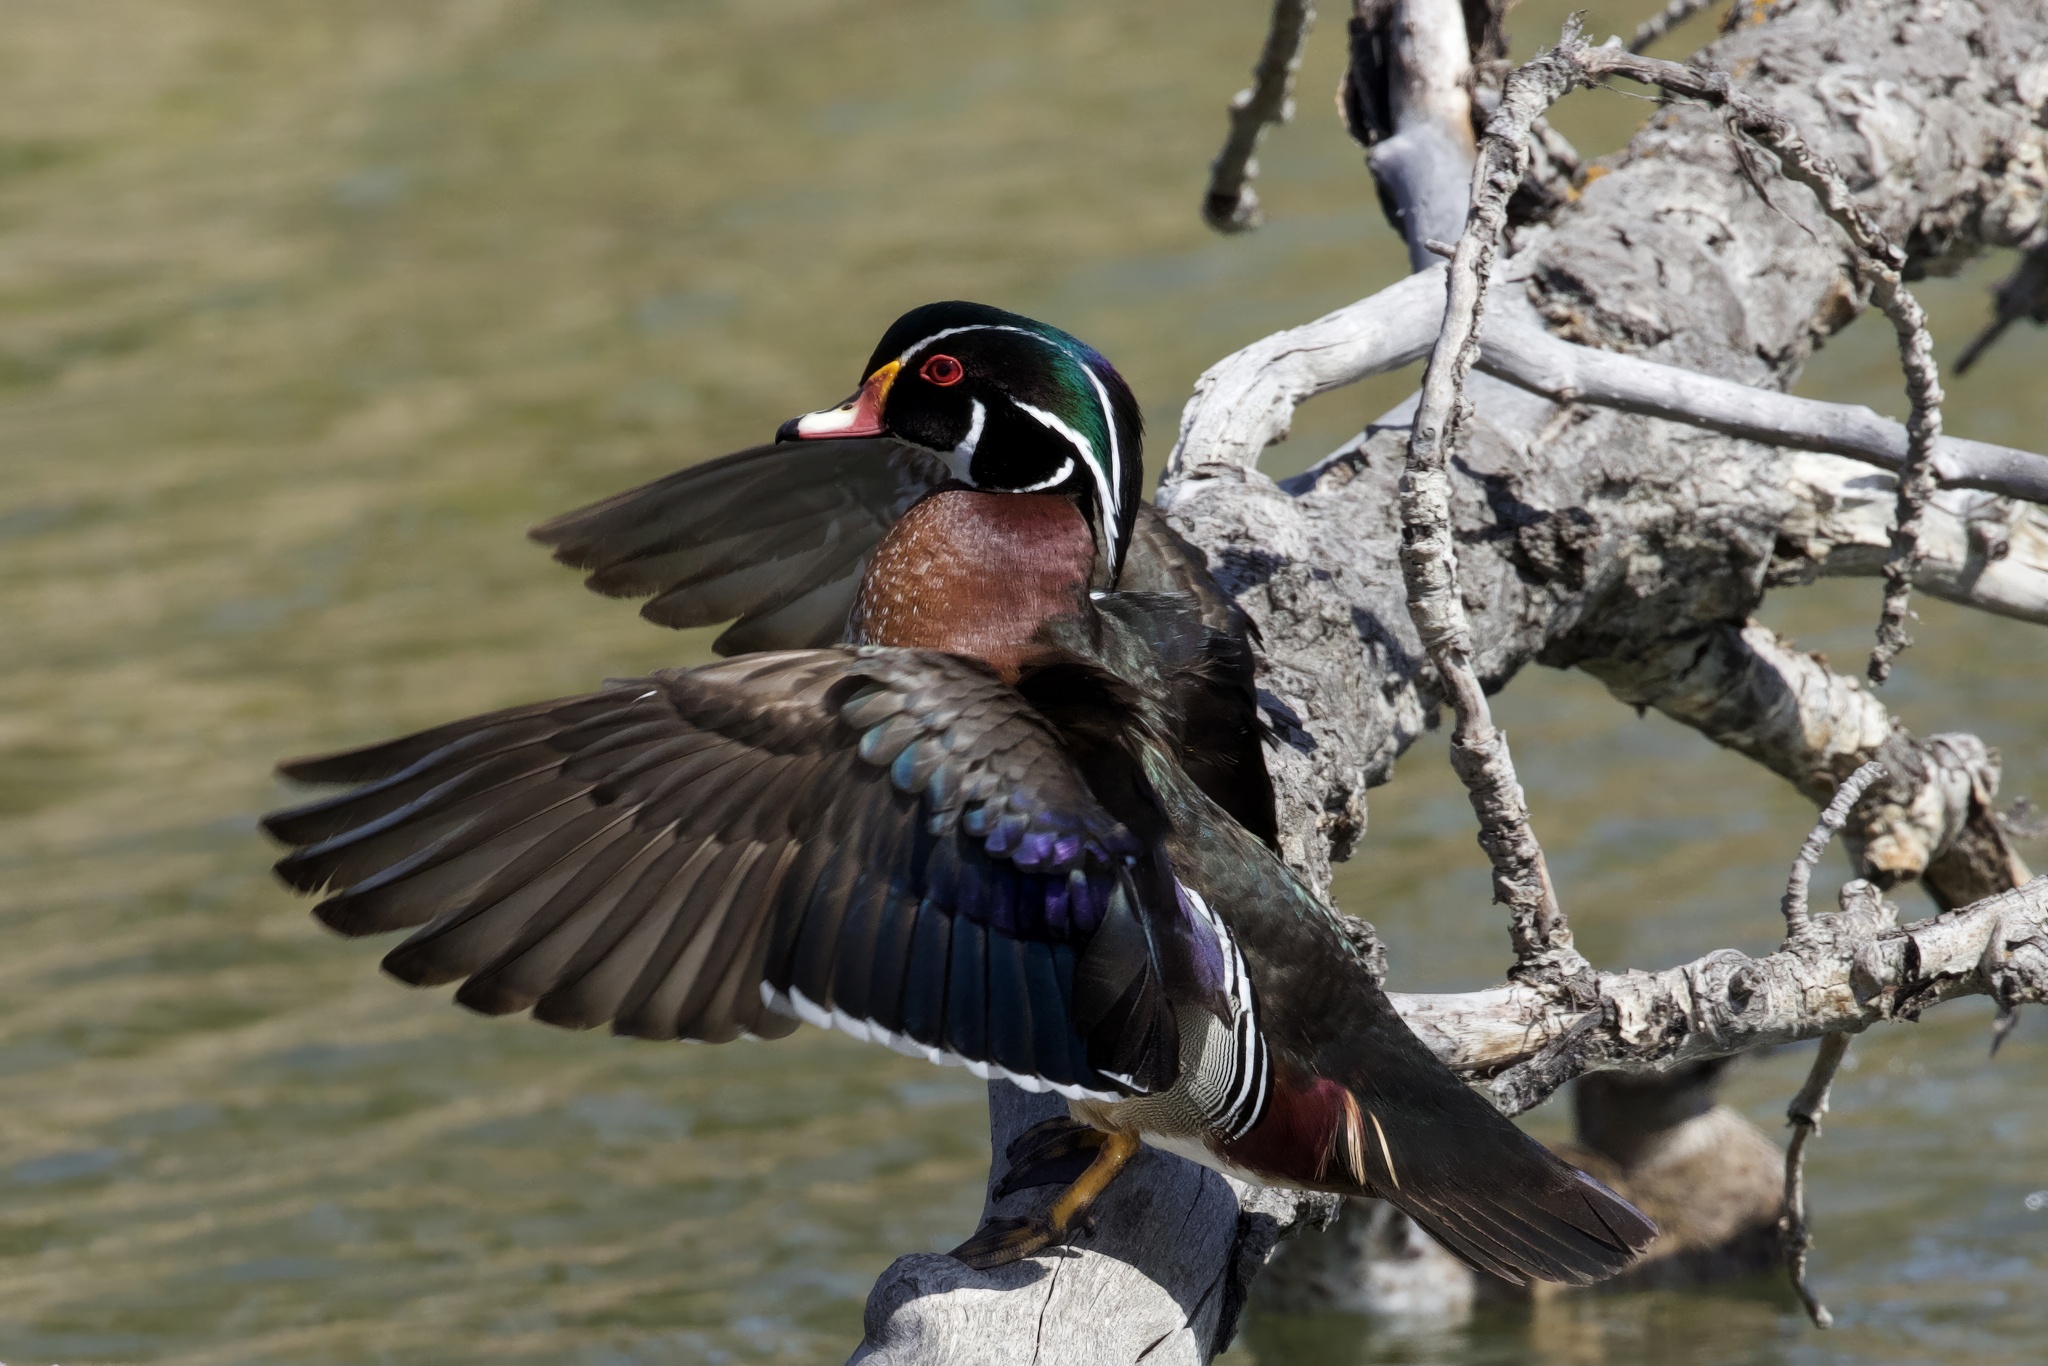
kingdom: Animalia
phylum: Chordata
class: Aves
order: Anseriformes
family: Anatidae
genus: Aix
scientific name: Aix sponsa
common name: Wood duck
